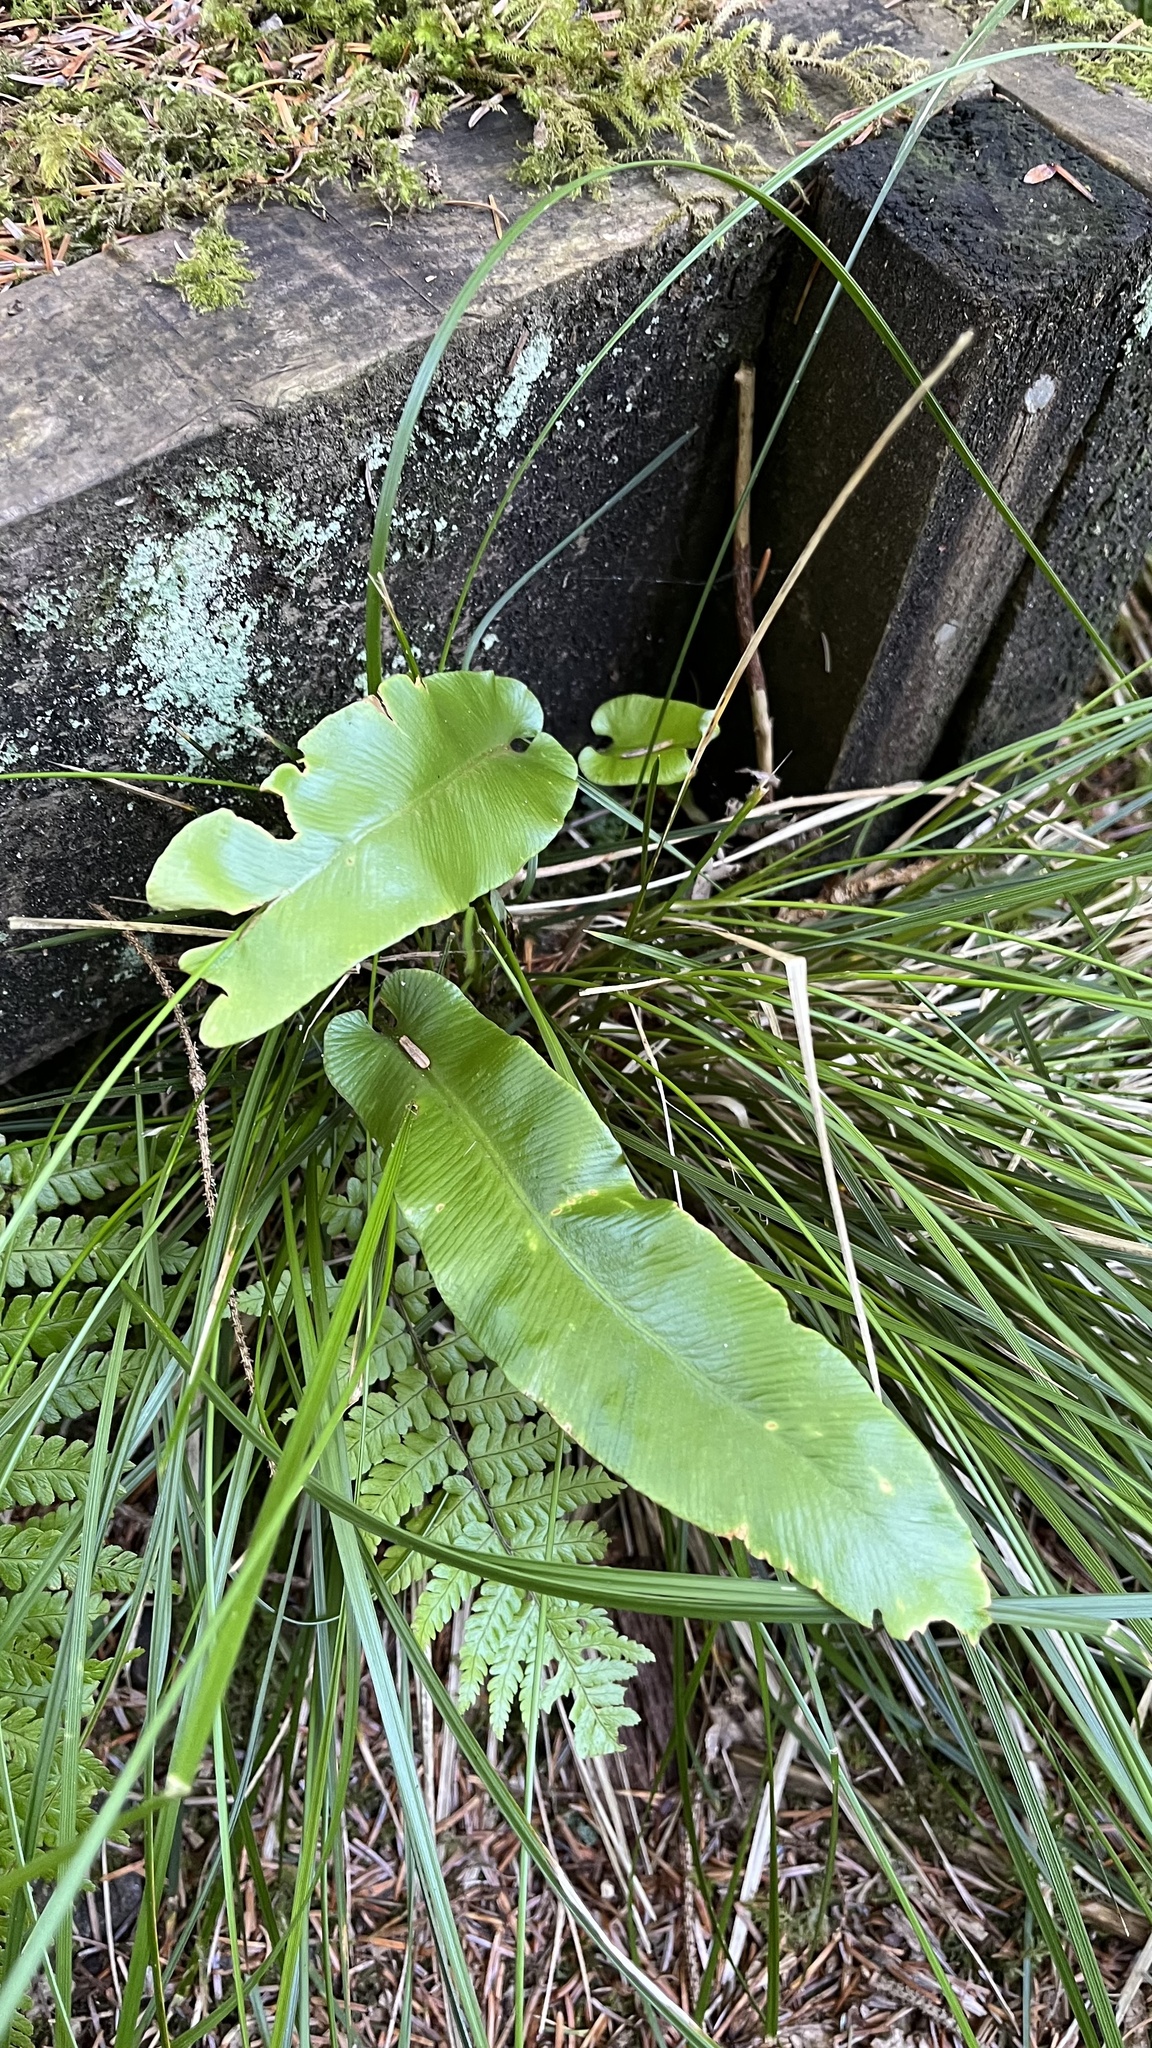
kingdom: Plantae
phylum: Tracheophyta
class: Polypodiopsida
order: Polypodiales
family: Aspleniaceae
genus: Asplenium
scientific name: Asplenium scolopendrium
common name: Hart's-tongue fern
